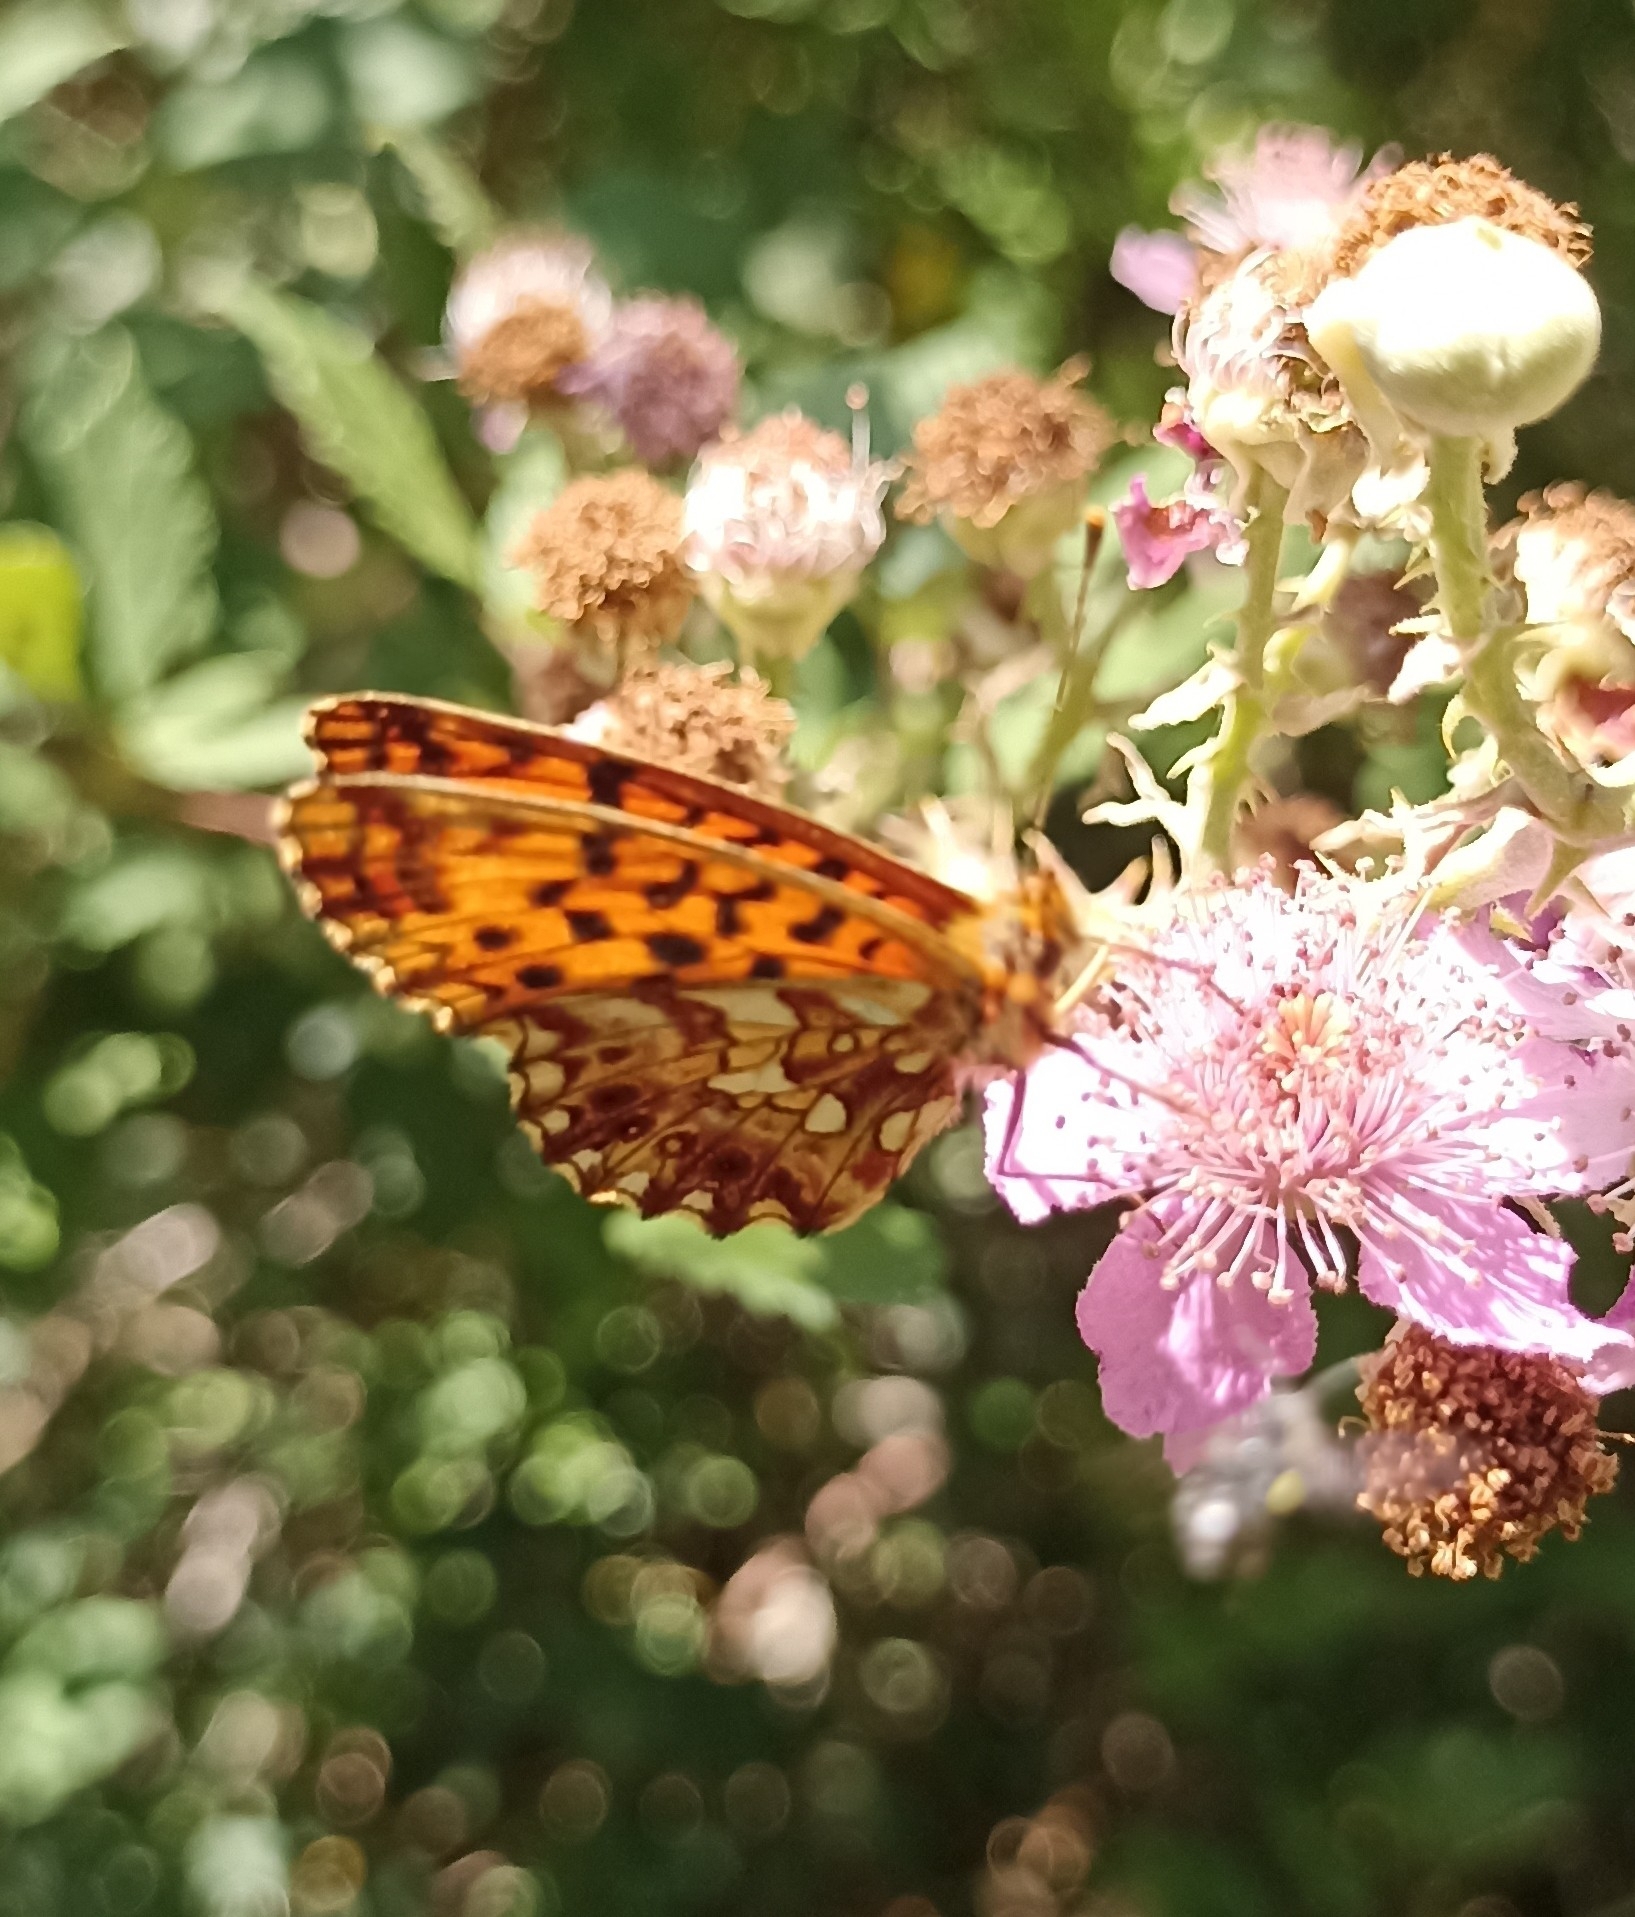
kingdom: Animalia
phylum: Arthropoda
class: Insecta
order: Lepidoptera
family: Nymphalidae
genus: Boloria
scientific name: Boloria dia
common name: Weaver's fritillary
